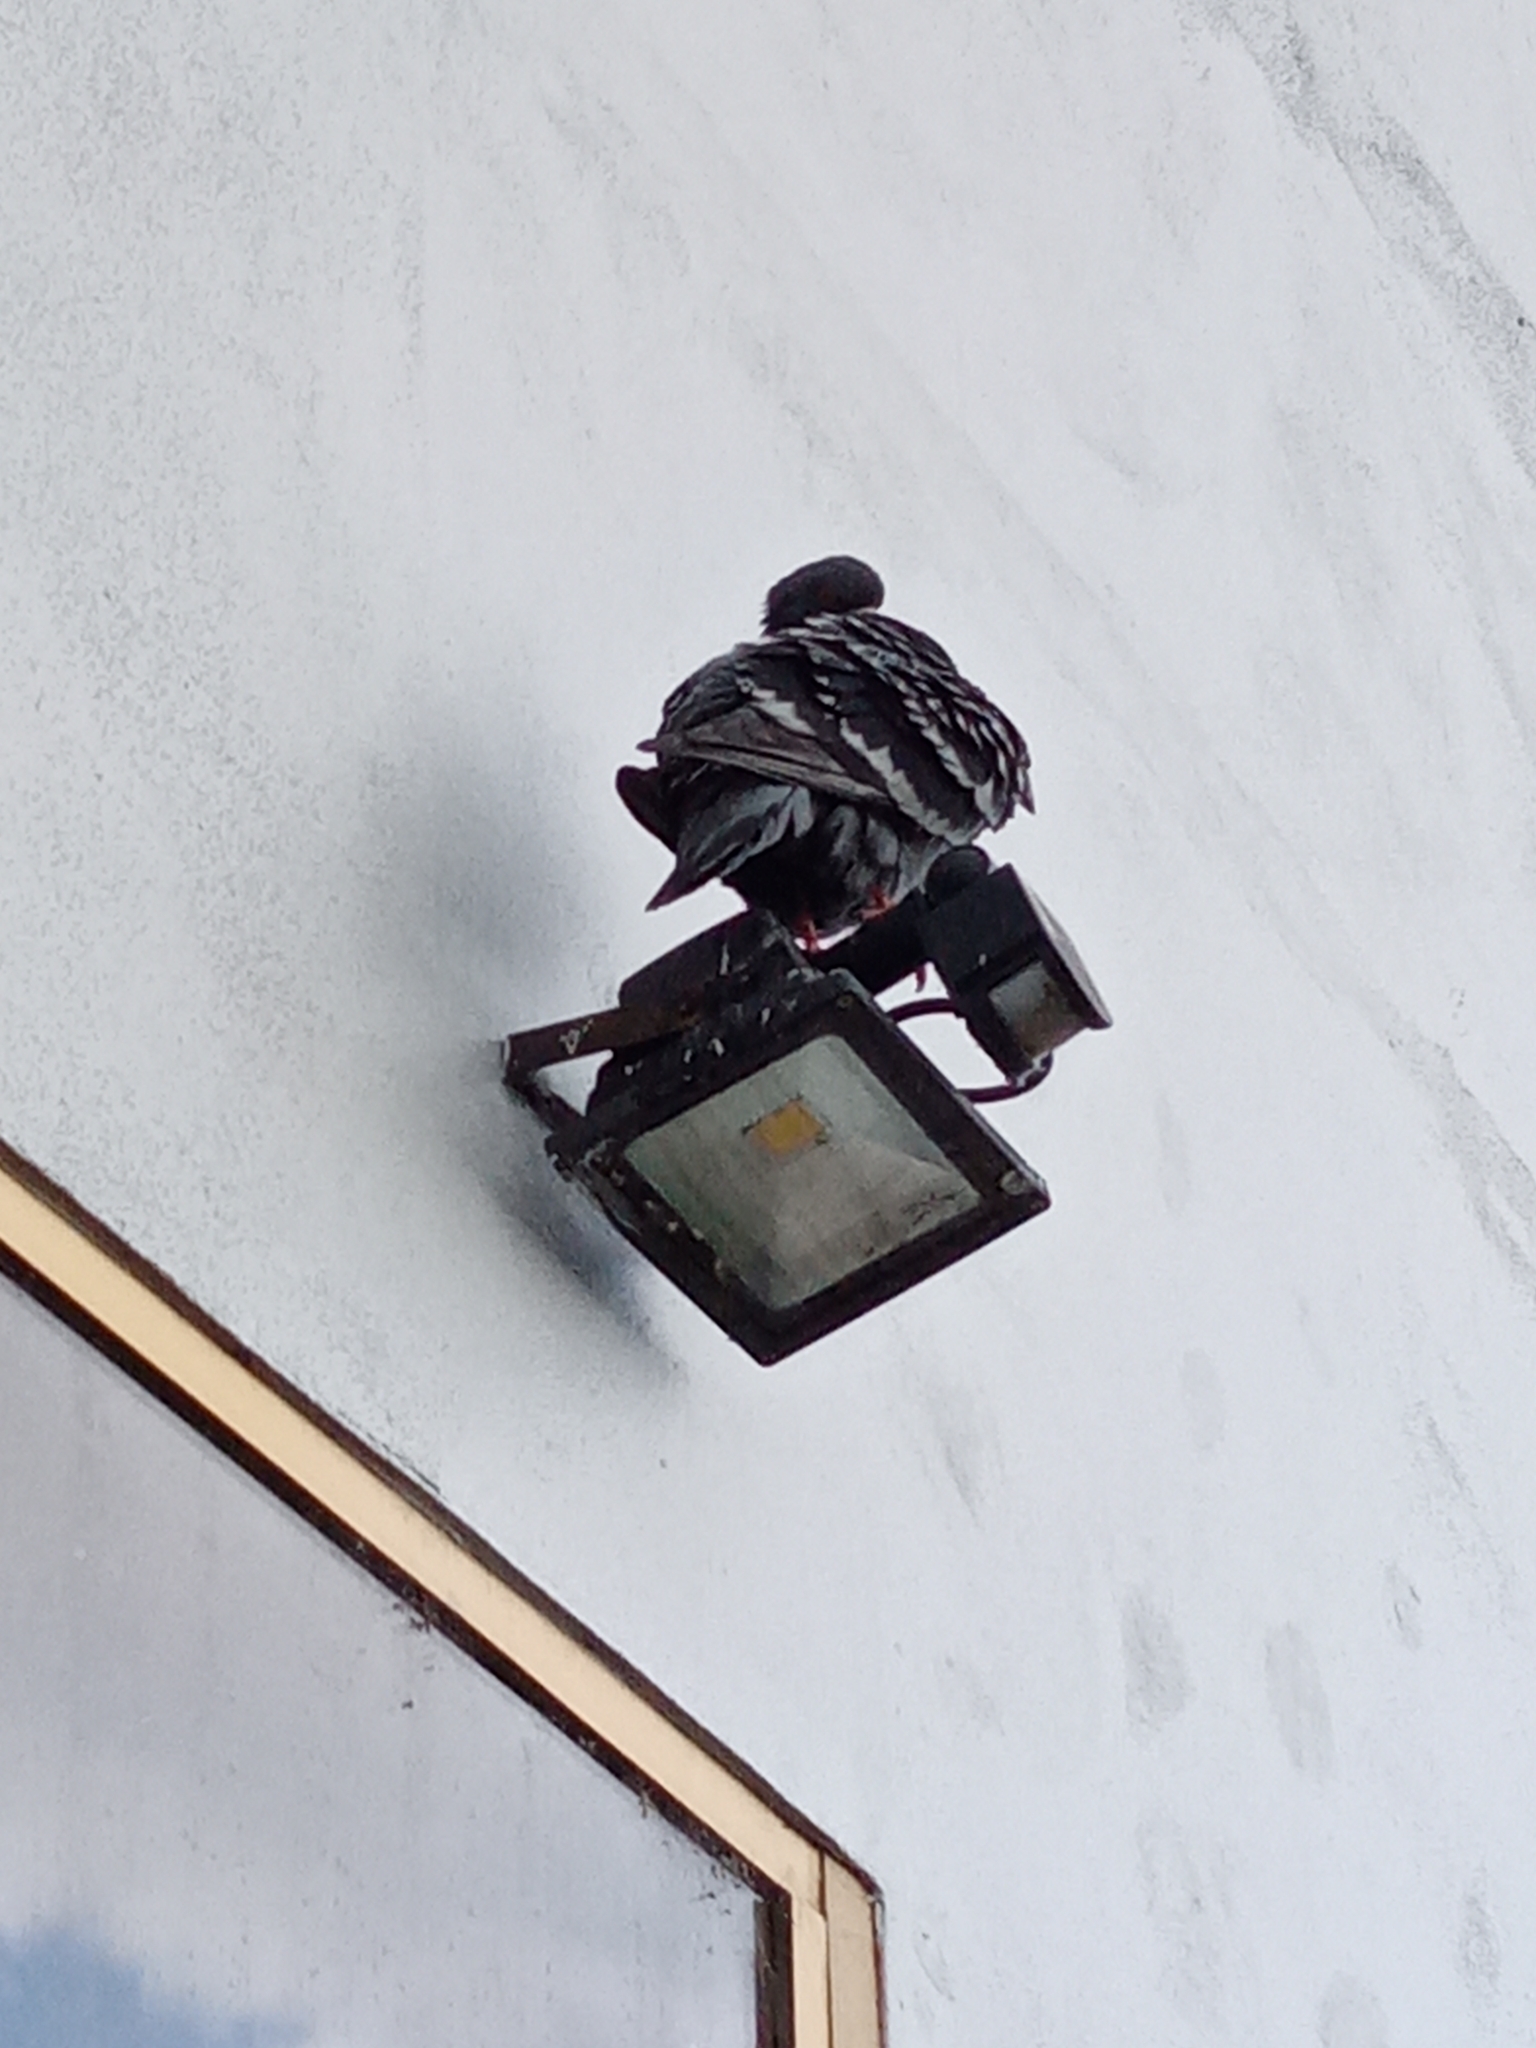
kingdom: Animalia
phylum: Chordata
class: Aves
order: Columbiformes
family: Columbidae
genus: Columba
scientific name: Columba livia
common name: Rock pigeon
